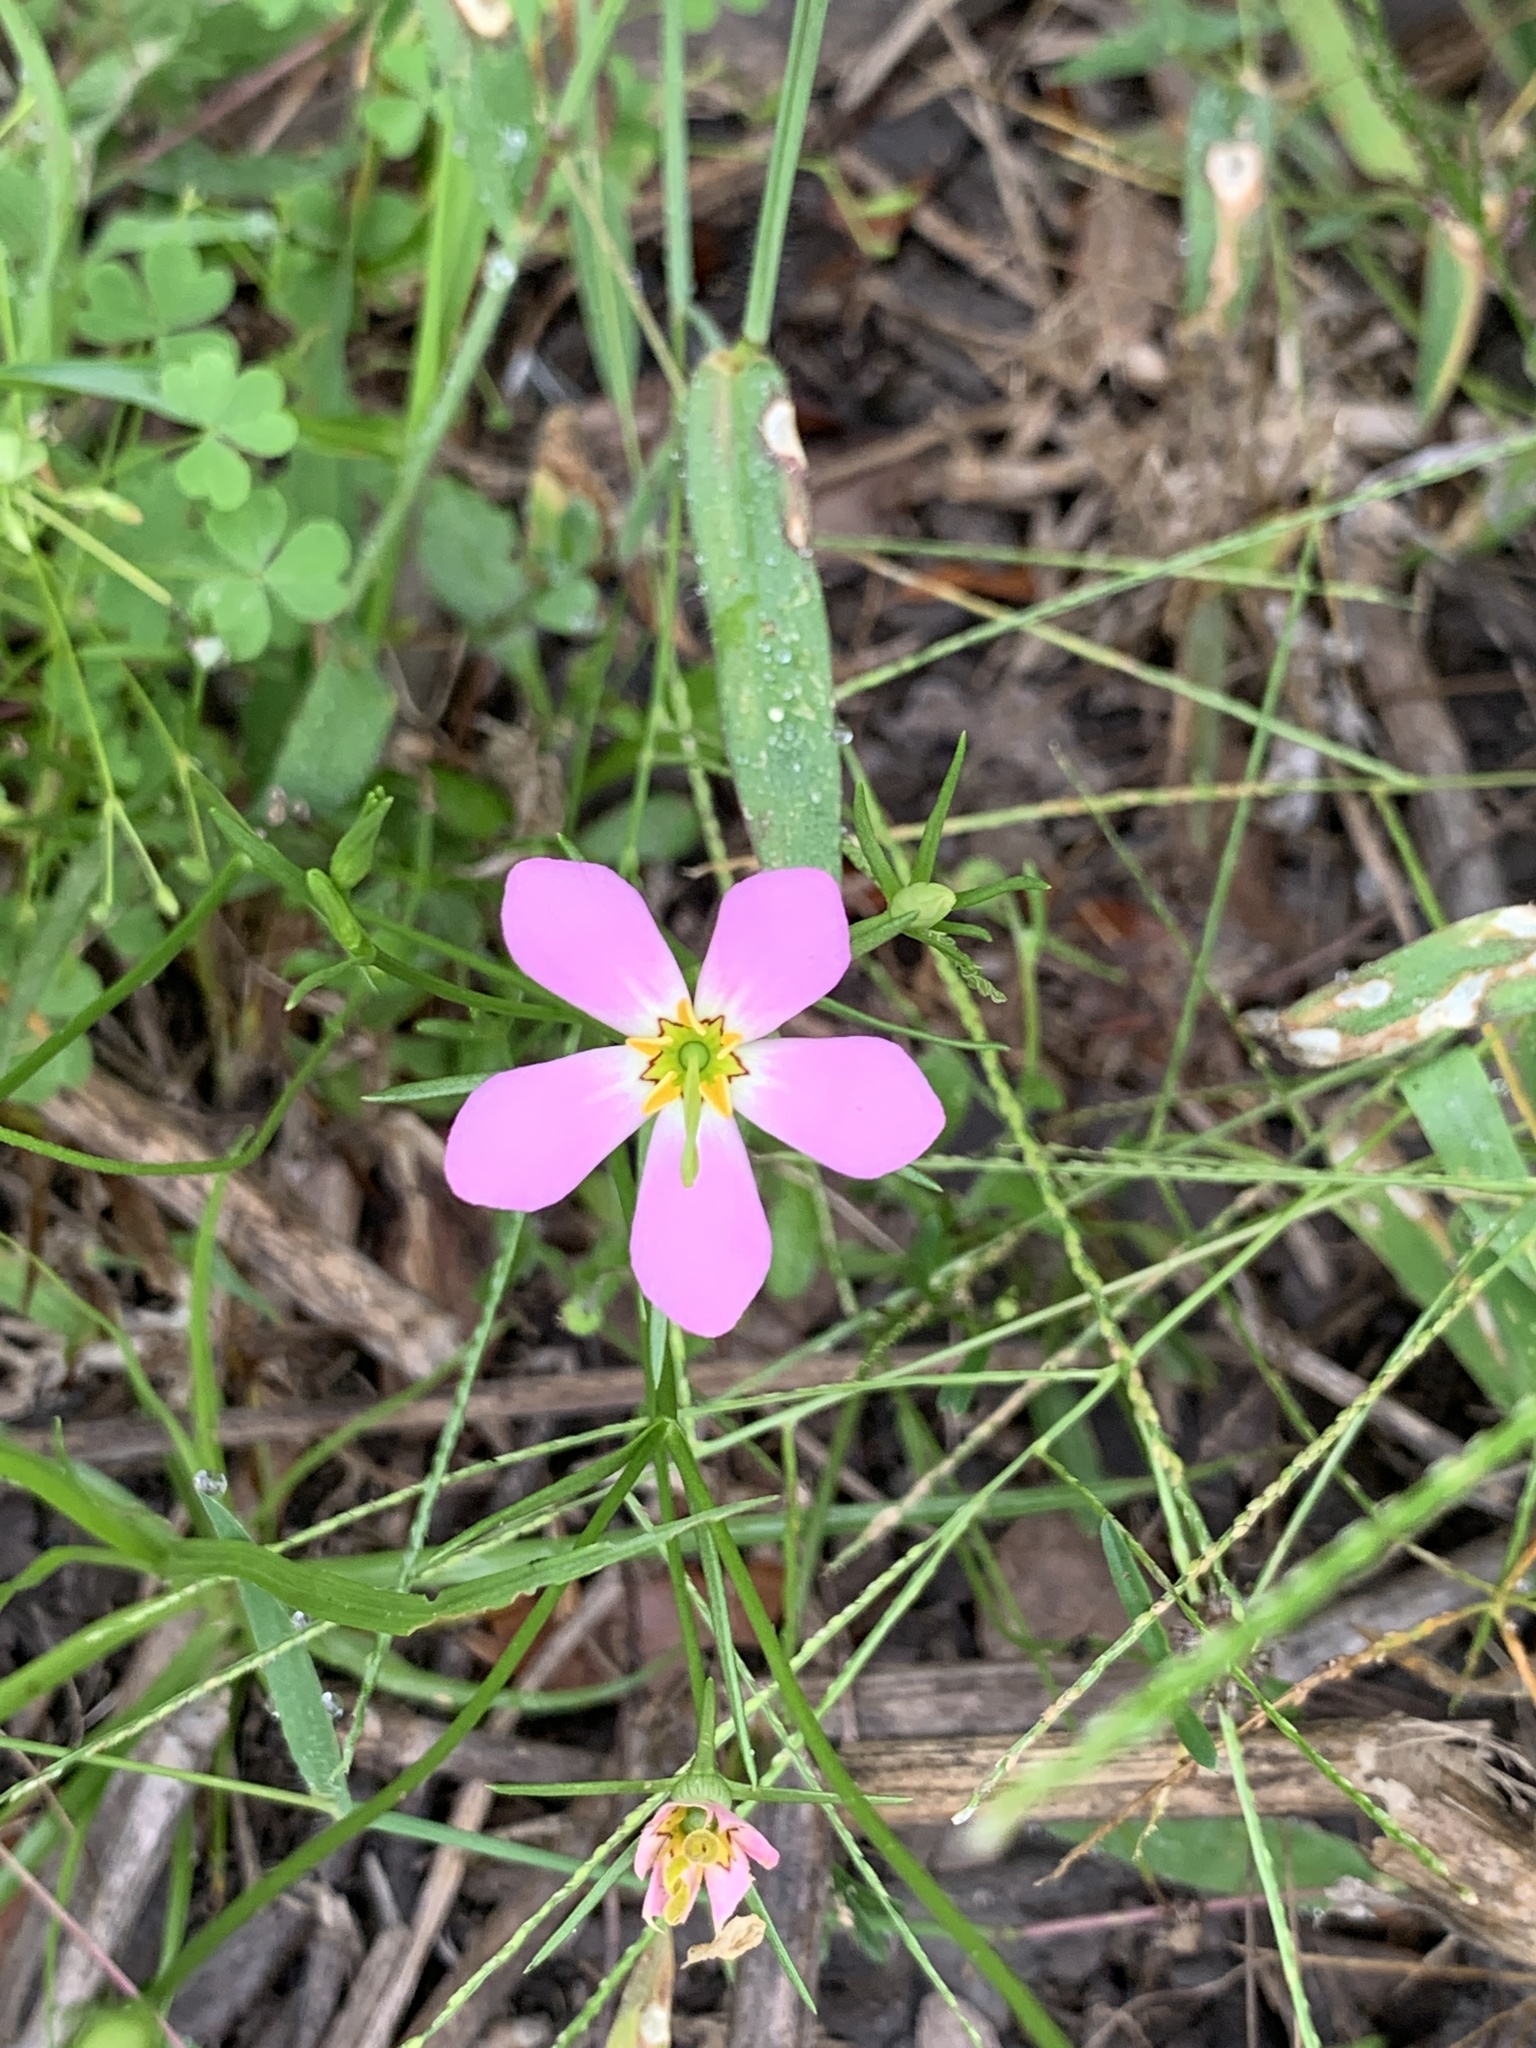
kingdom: Plantae
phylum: Tracheophyta
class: Magnoliopsida
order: Gentianales
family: Gentianaceae
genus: Sabatia
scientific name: Sabatia stellaris
